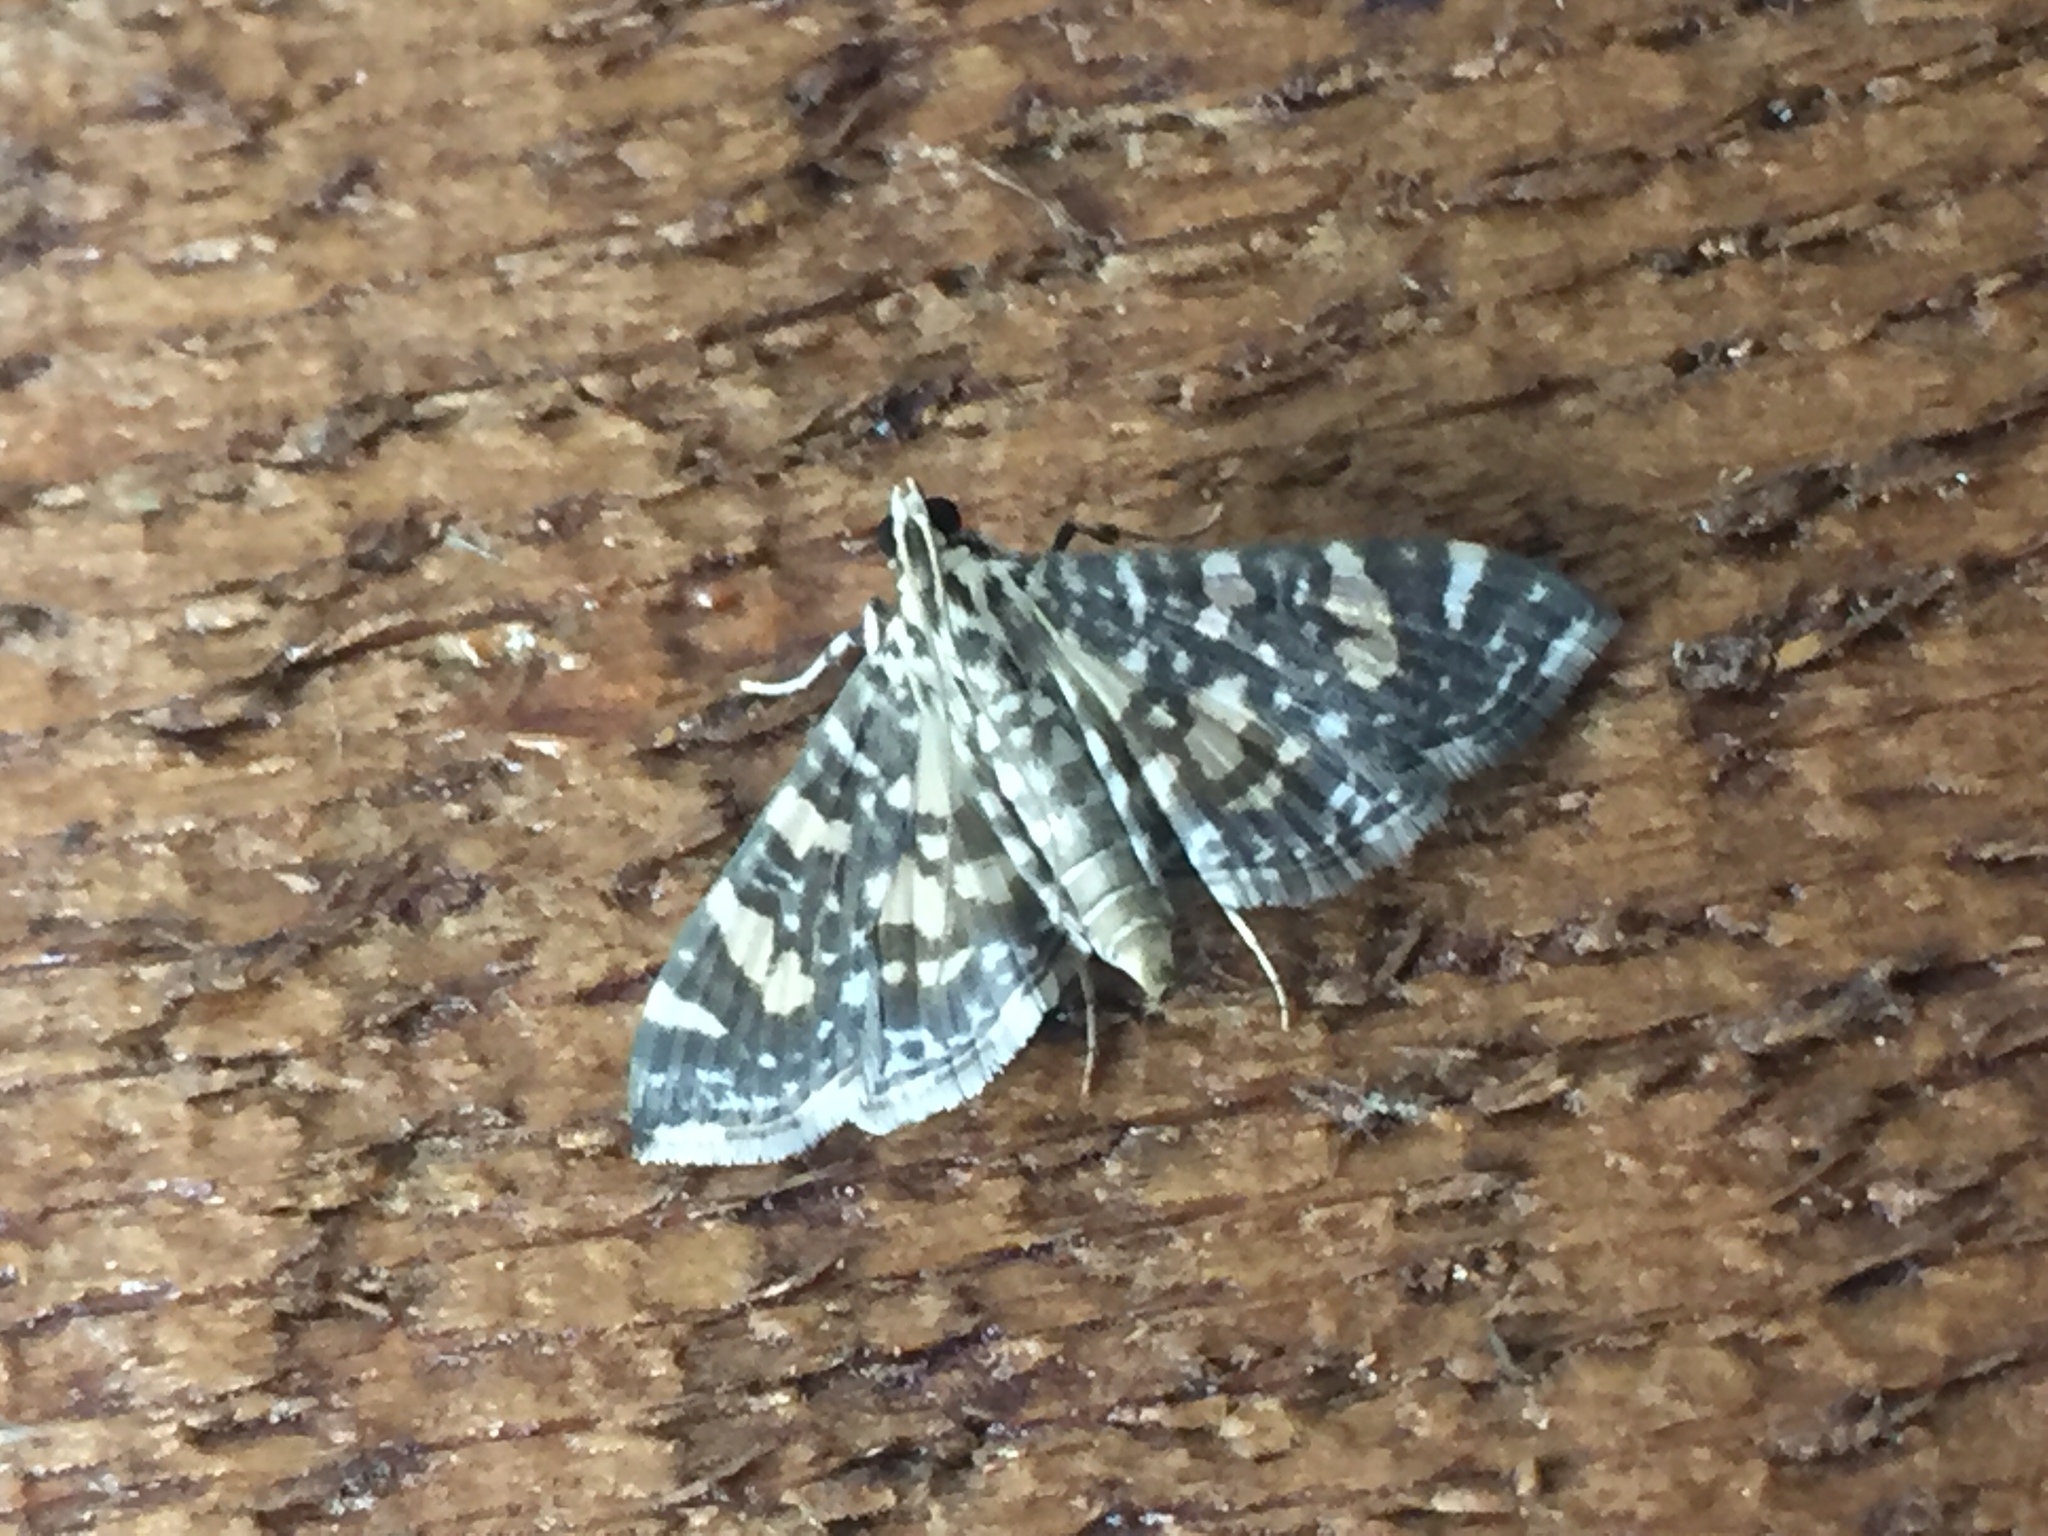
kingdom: Animalia
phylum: Arthropoda
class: Insecta
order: Lepidoptera
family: Crambidae
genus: Glyphodes
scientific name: Glyphodes onychinalis
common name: Swan plant moth
